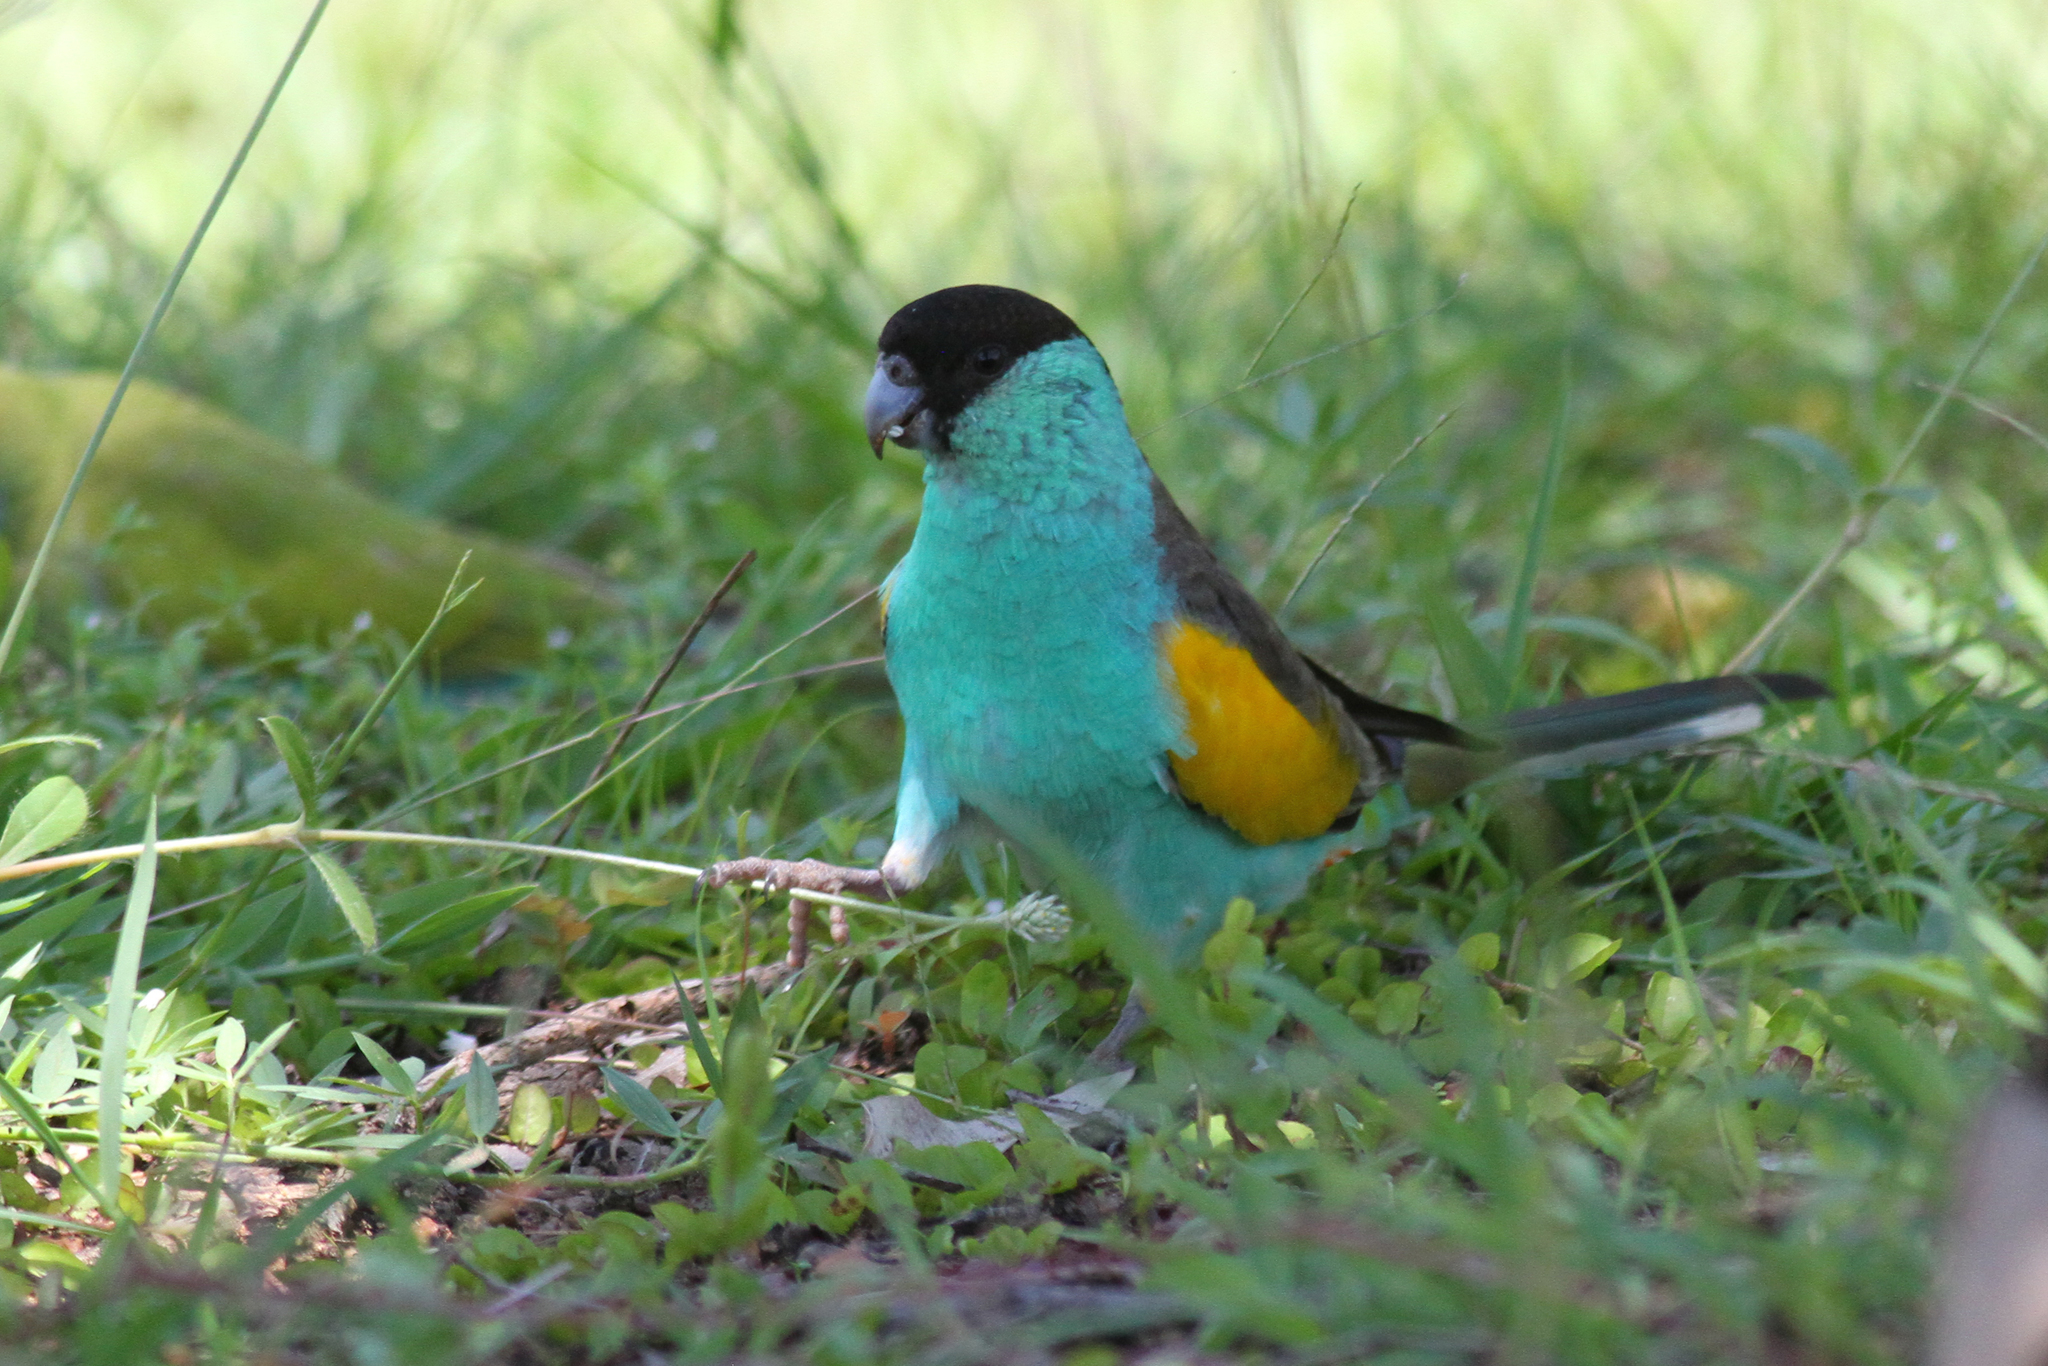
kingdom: Animalia
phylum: Chordata
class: Aves
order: Psittaciformes
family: Psittaculidae
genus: Psephotellus
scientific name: Psephotellus dissimilis
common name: Hooded parrot
